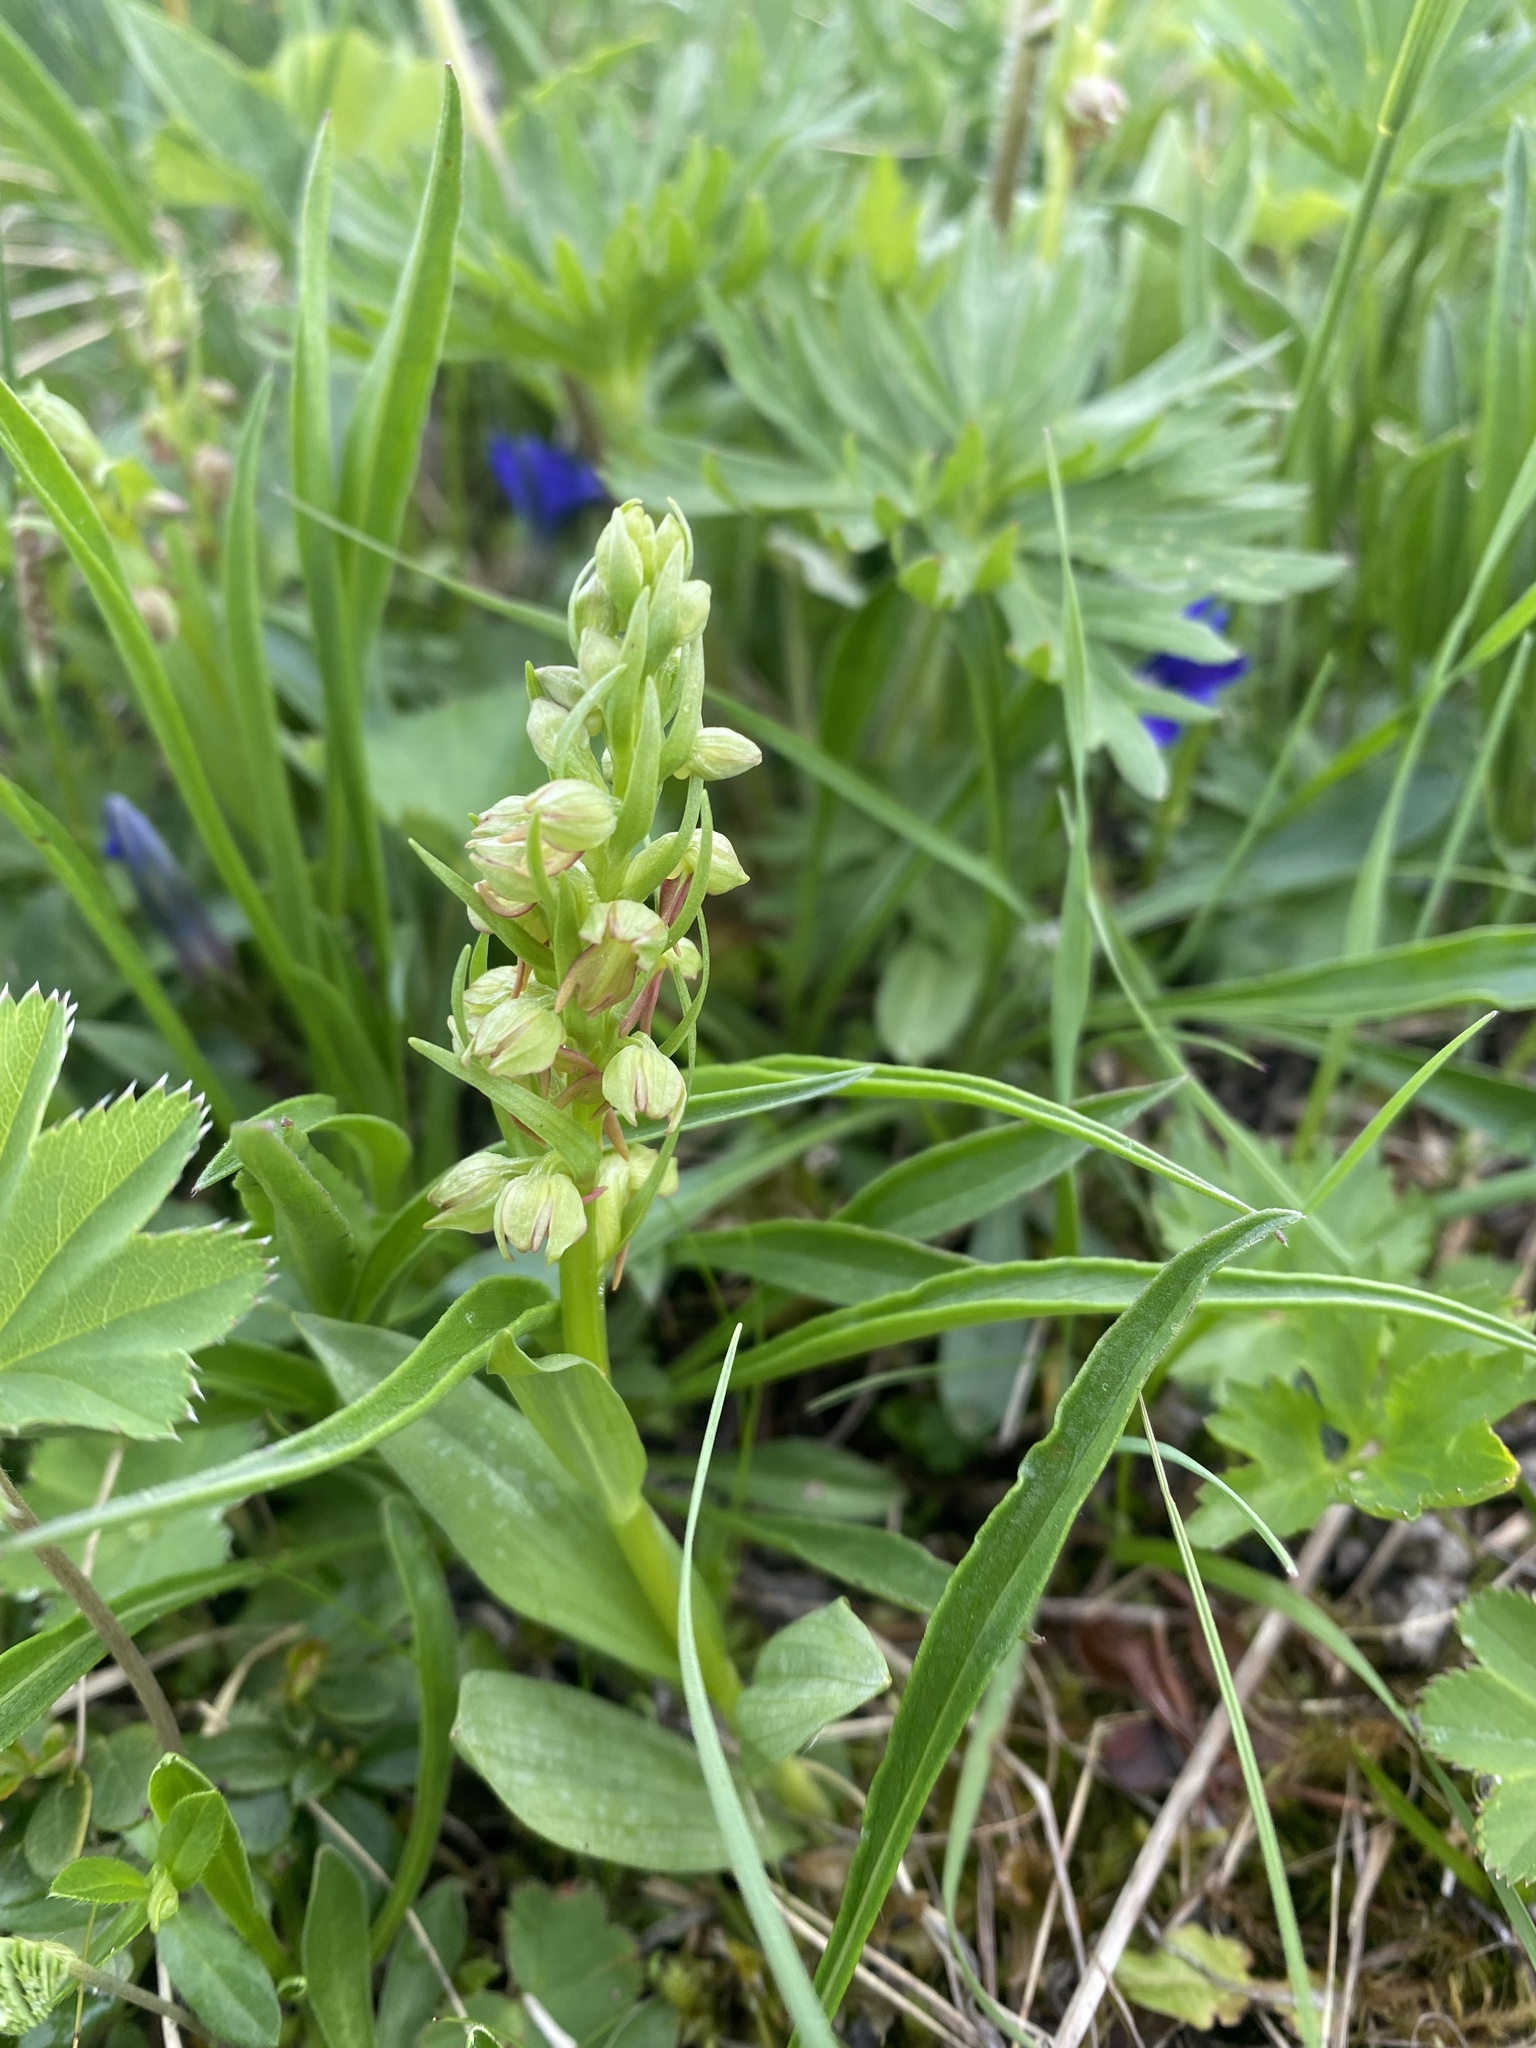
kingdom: Plantae
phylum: Tracheophyta
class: Liliopsida
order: Asparagales
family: Orchidaceae
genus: Dactylorhiza
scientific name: Dactylorhiza viridis
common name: Longbract frog orchid
